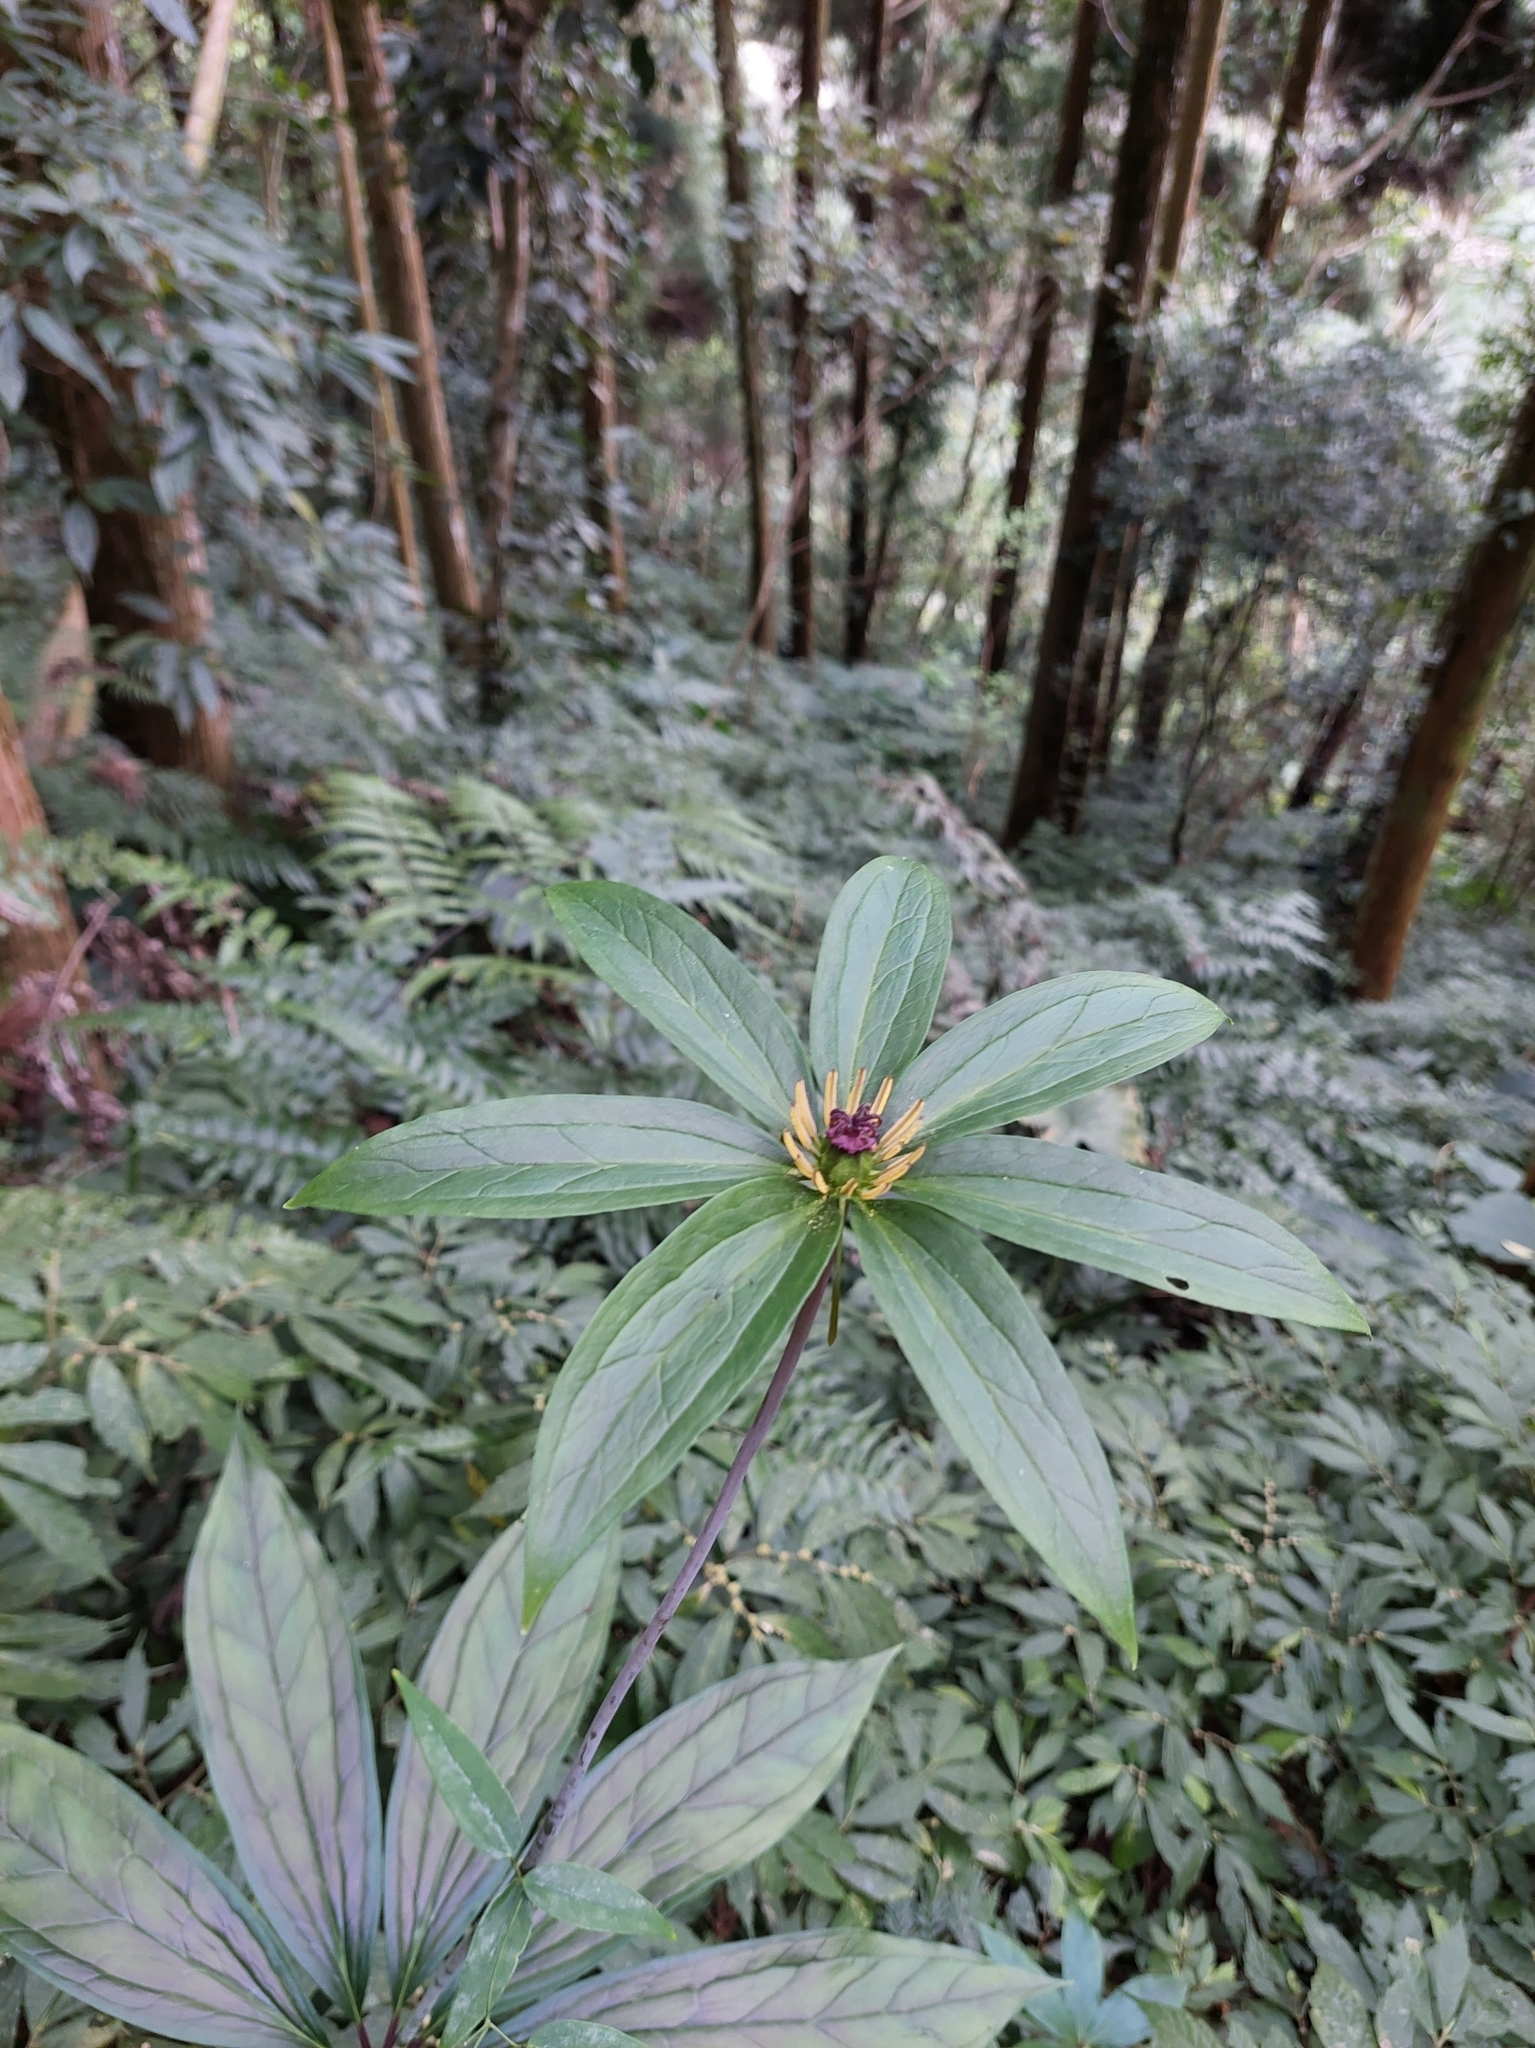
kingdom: Plantae
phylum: Tracheophyta
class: Liliopsida
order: Liliales
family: Melanthiaceae
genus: Paris
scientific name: Paris polyphylla
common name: Love apple
